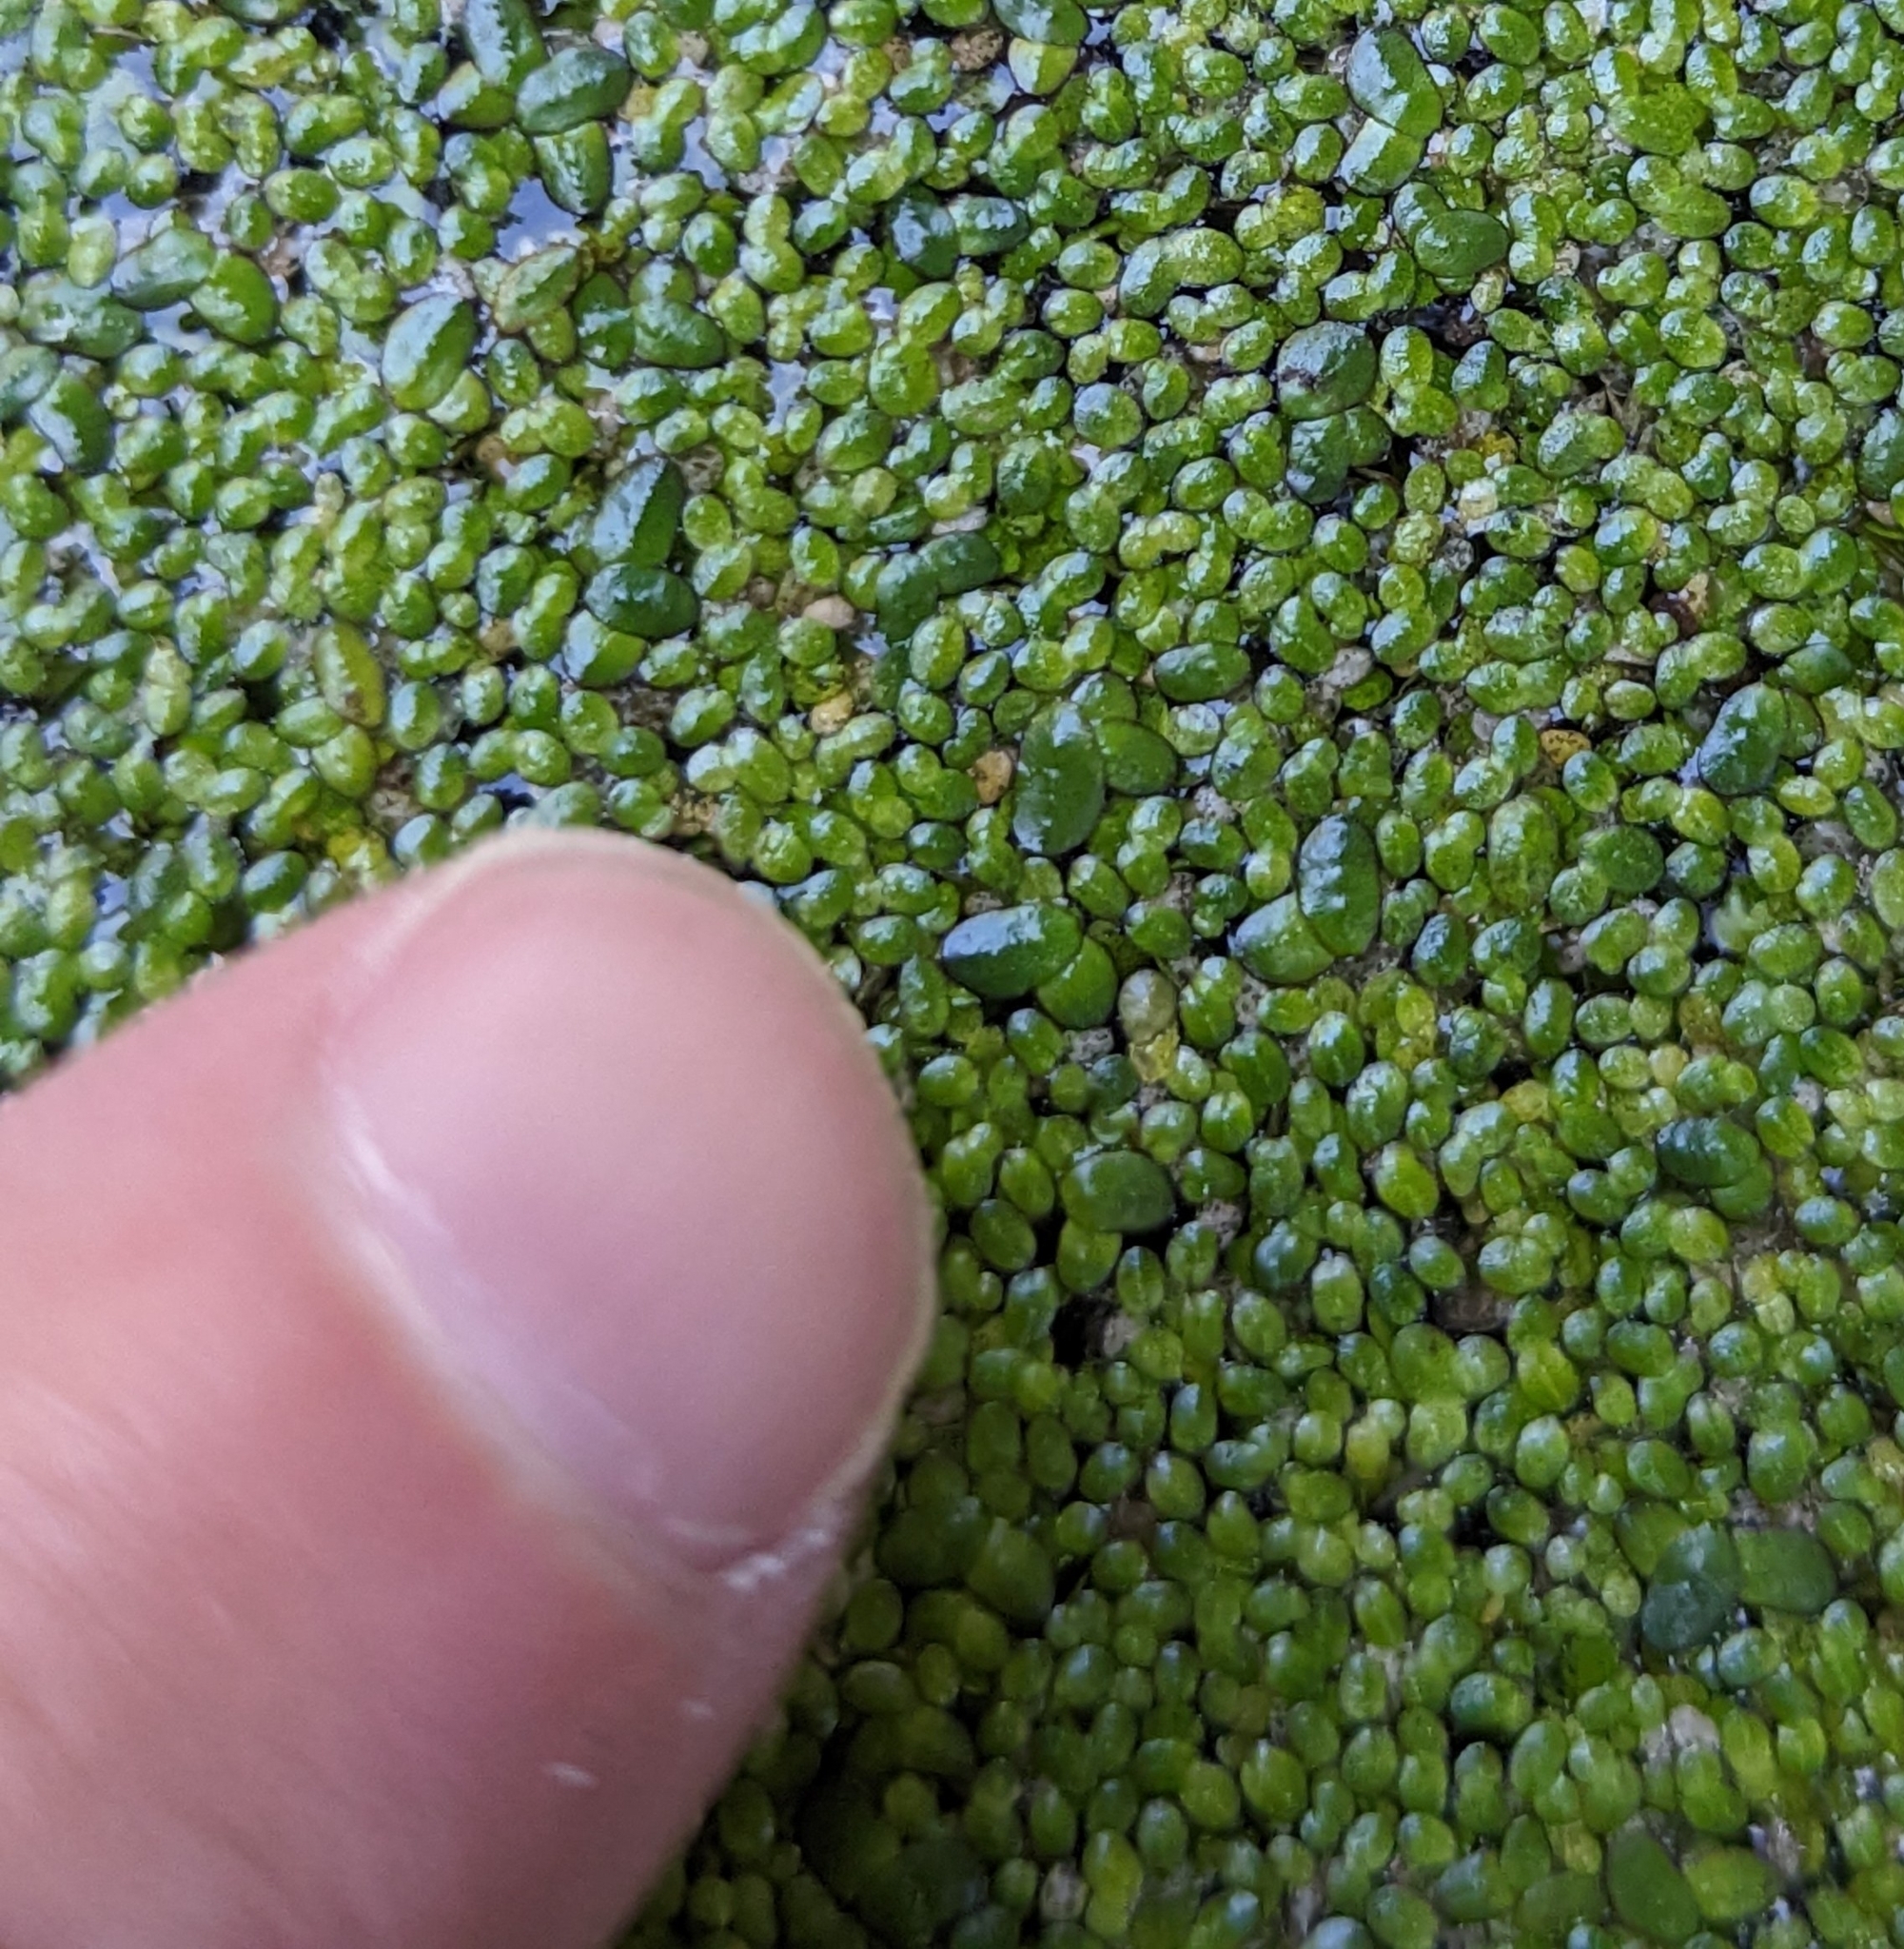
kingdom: Plantae
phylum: Tracheophyta
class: Liliopsida
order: Alismatales
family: Araceae
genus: Lemna
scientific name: Lemna minor
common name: Common duckweed
